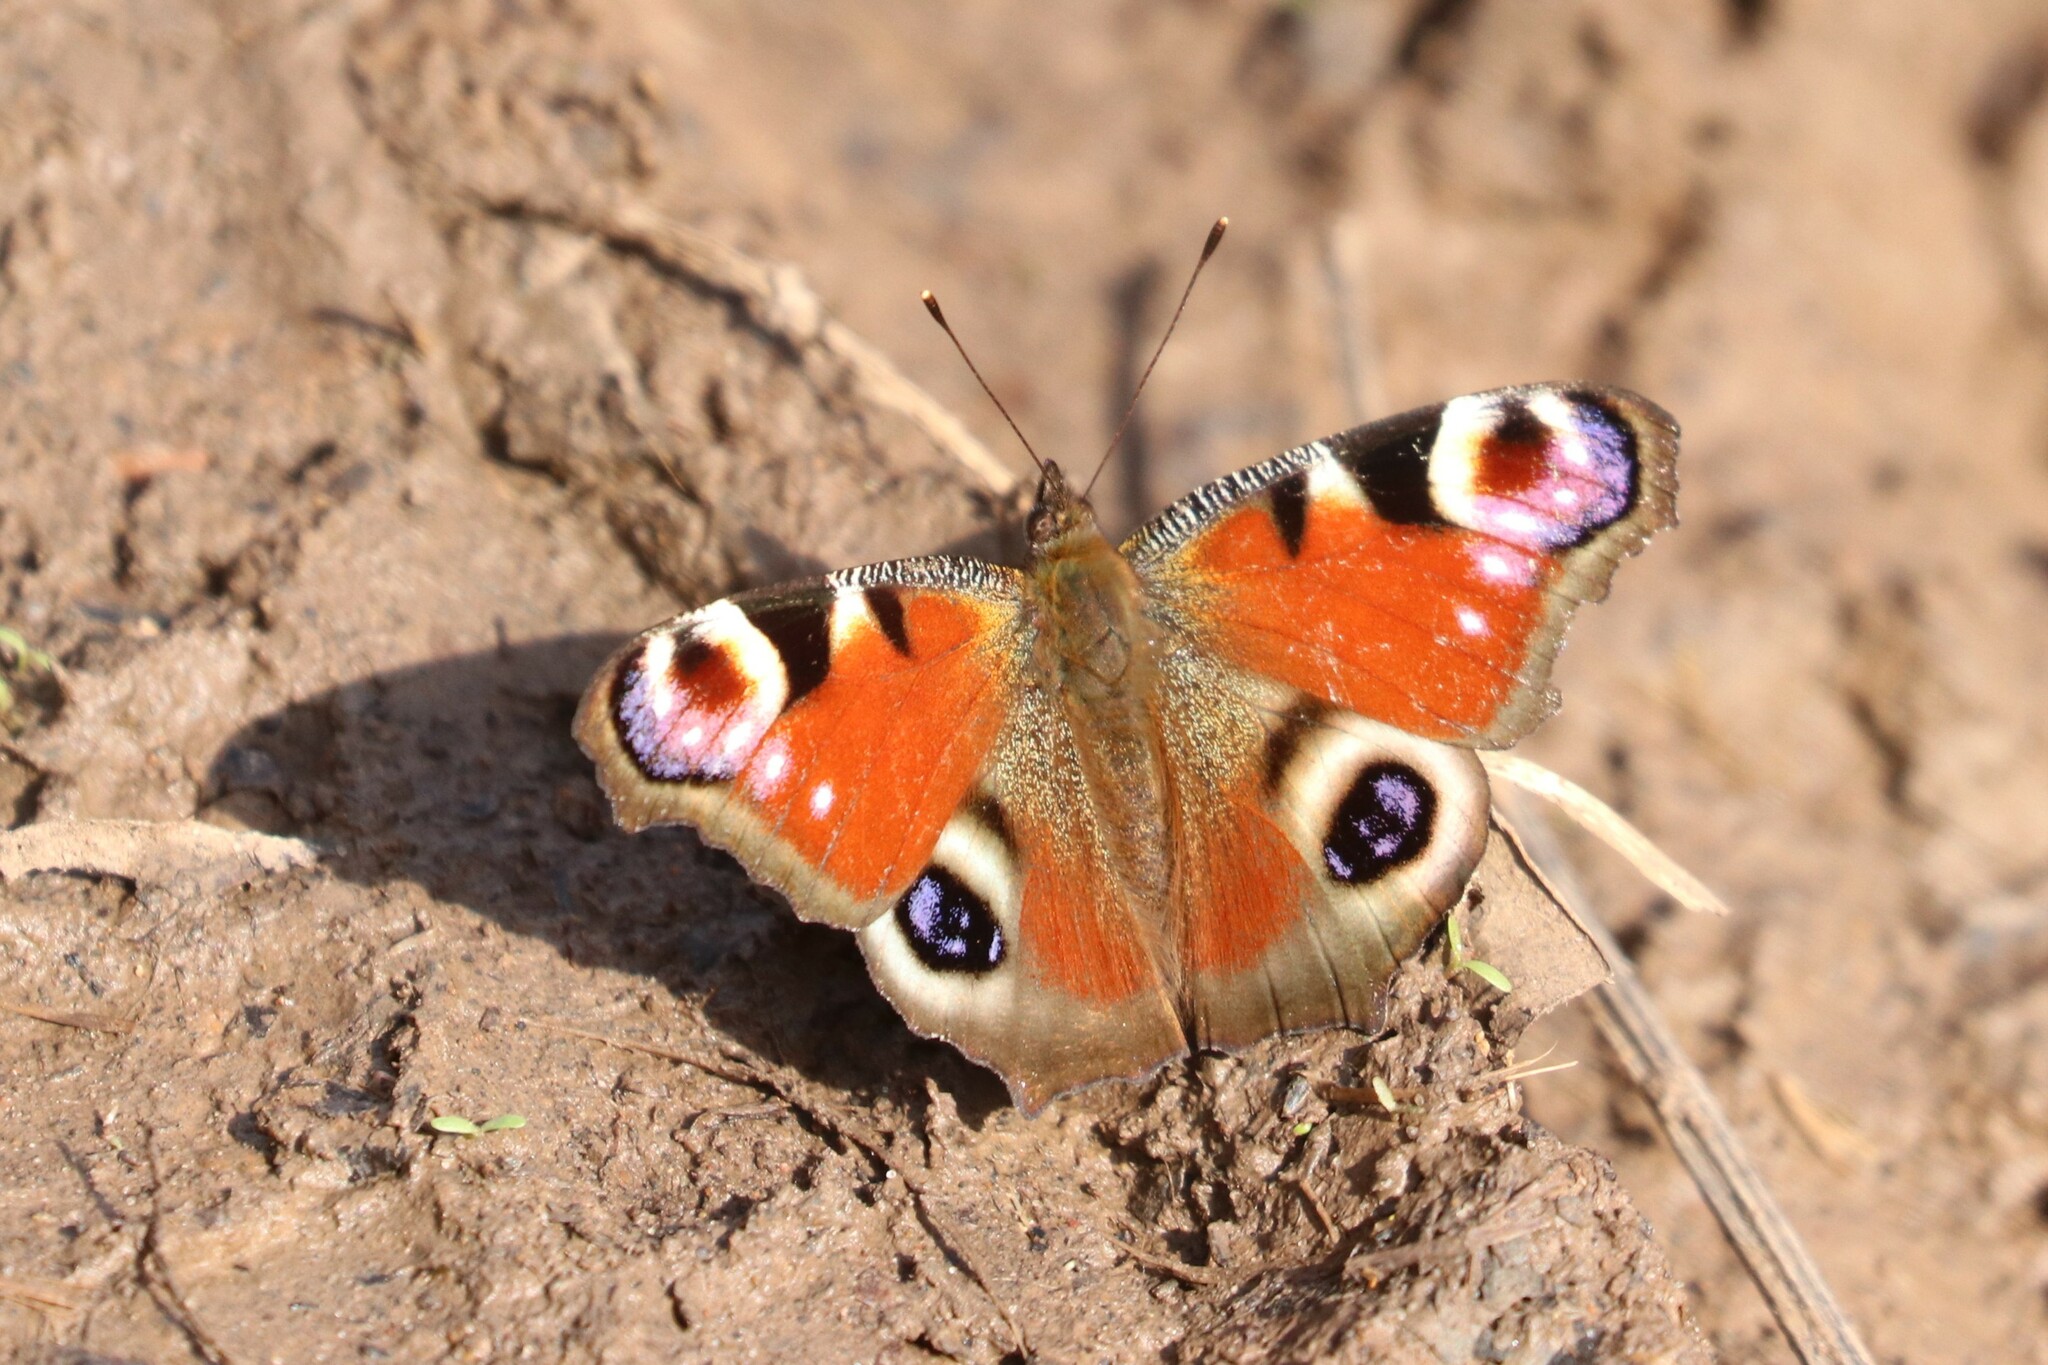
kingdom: Animalia
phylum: Arthropoda
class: Insecta
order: Lepidoptera
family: Nymphalidae
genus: Aglais
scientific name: Aglais io
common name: Peacock
